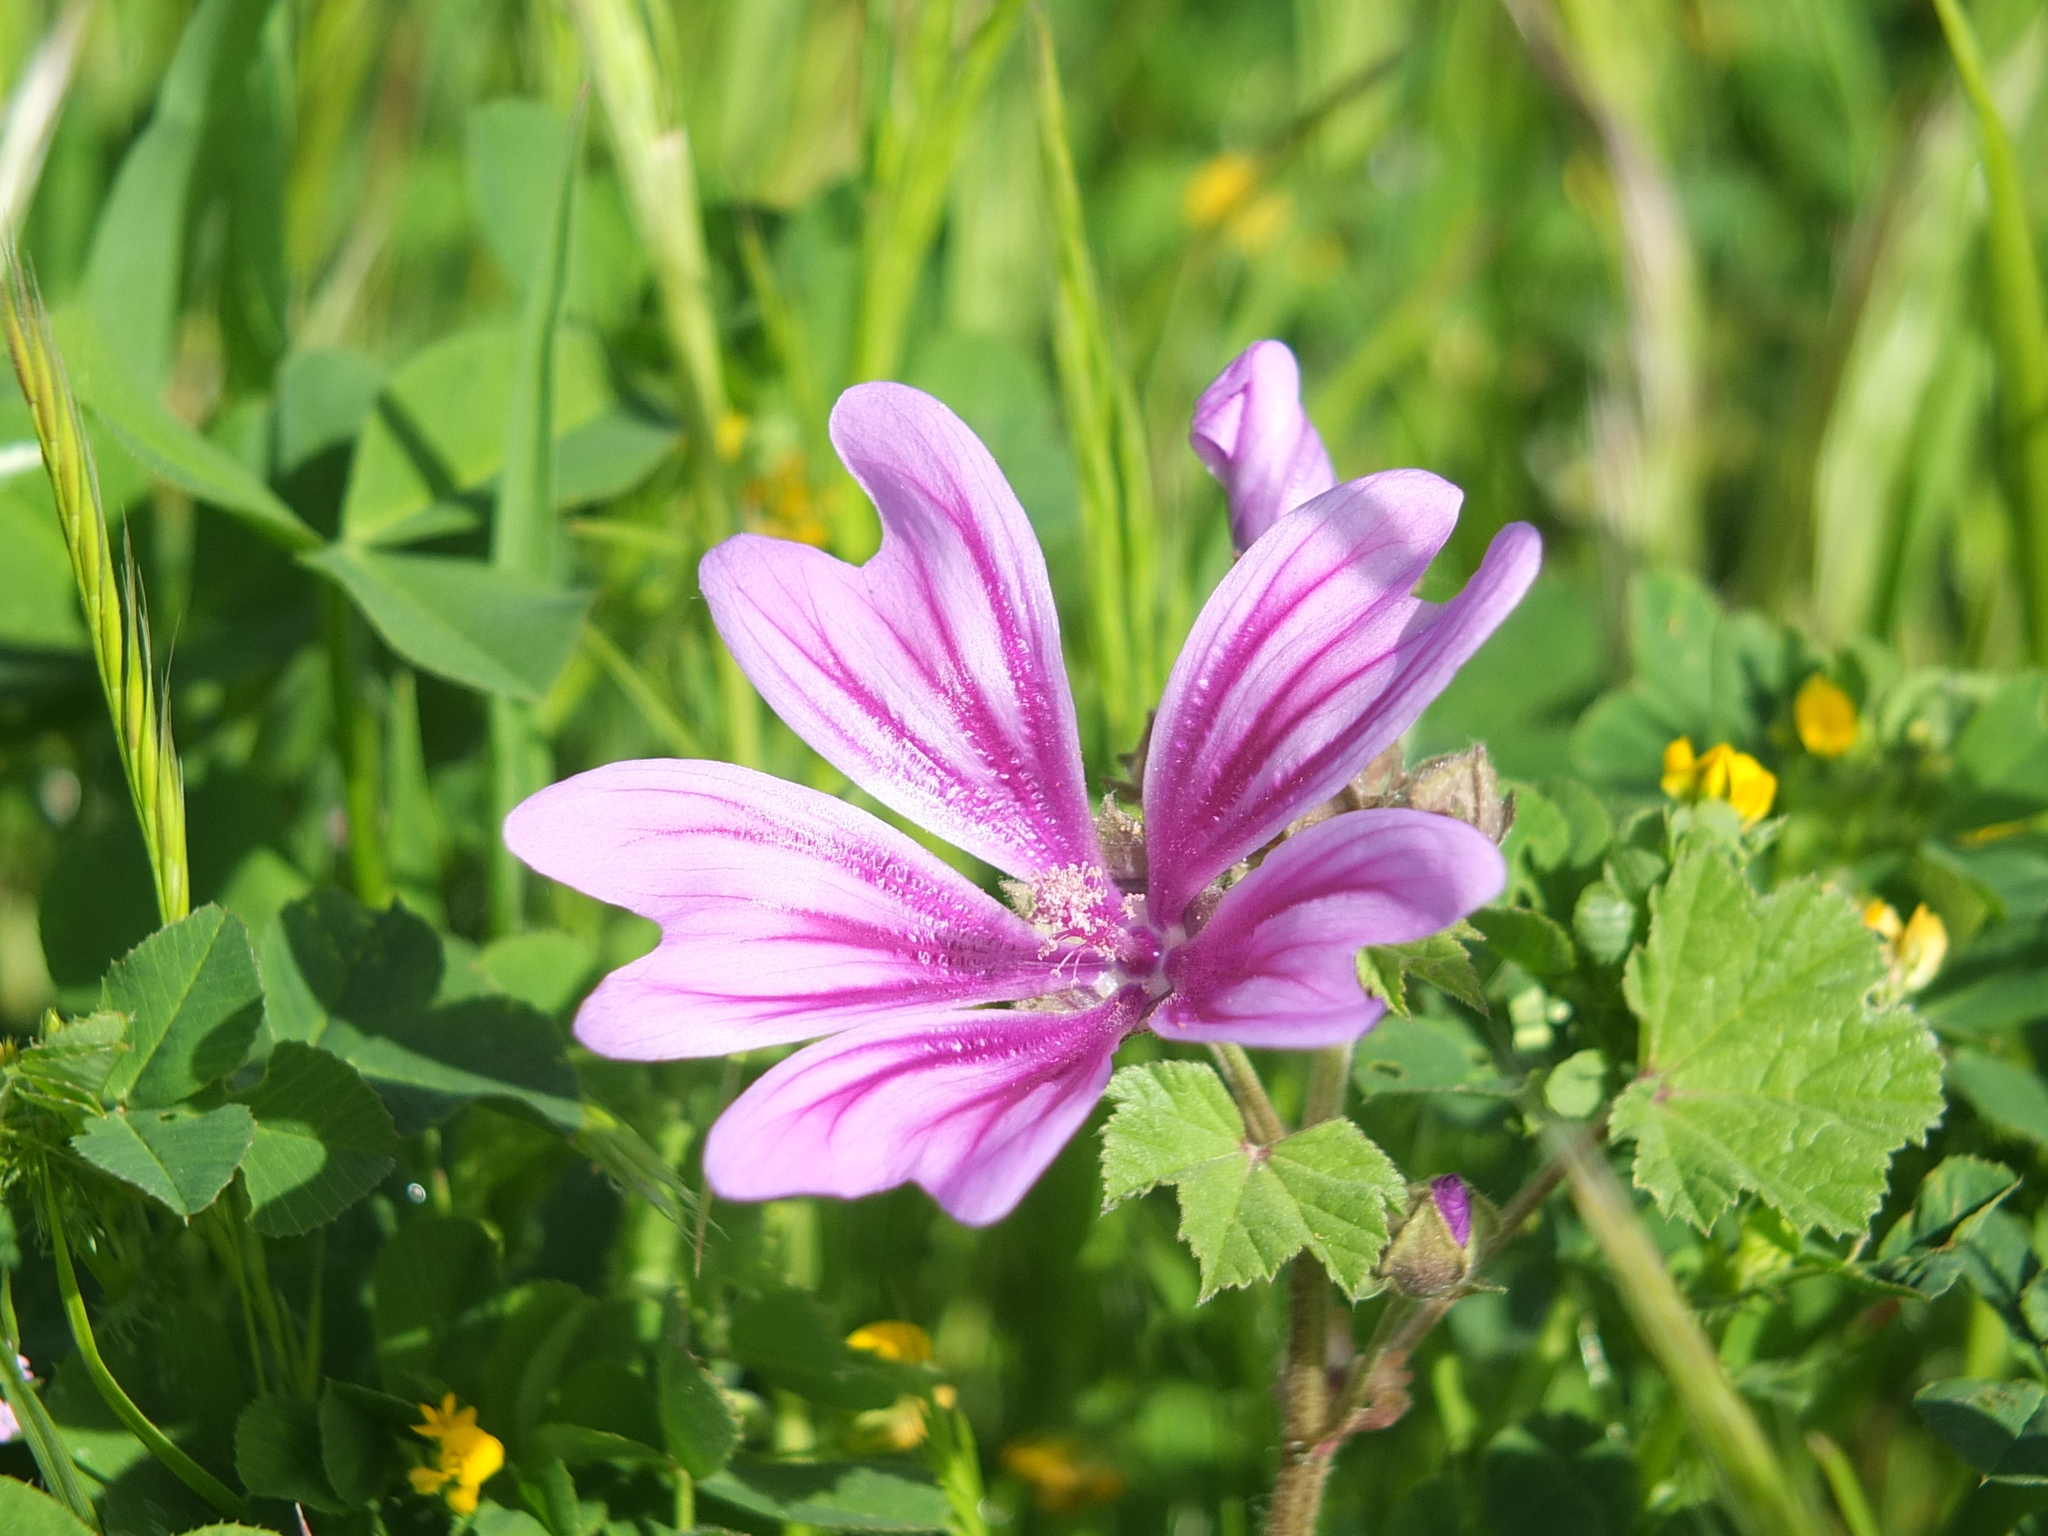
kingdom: Plantae
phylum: Tracheophyta
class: Magnoliopsida
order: Malvales
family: Malvaceae
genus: Malva
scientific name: Malva sylvestris
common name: Common mallow
